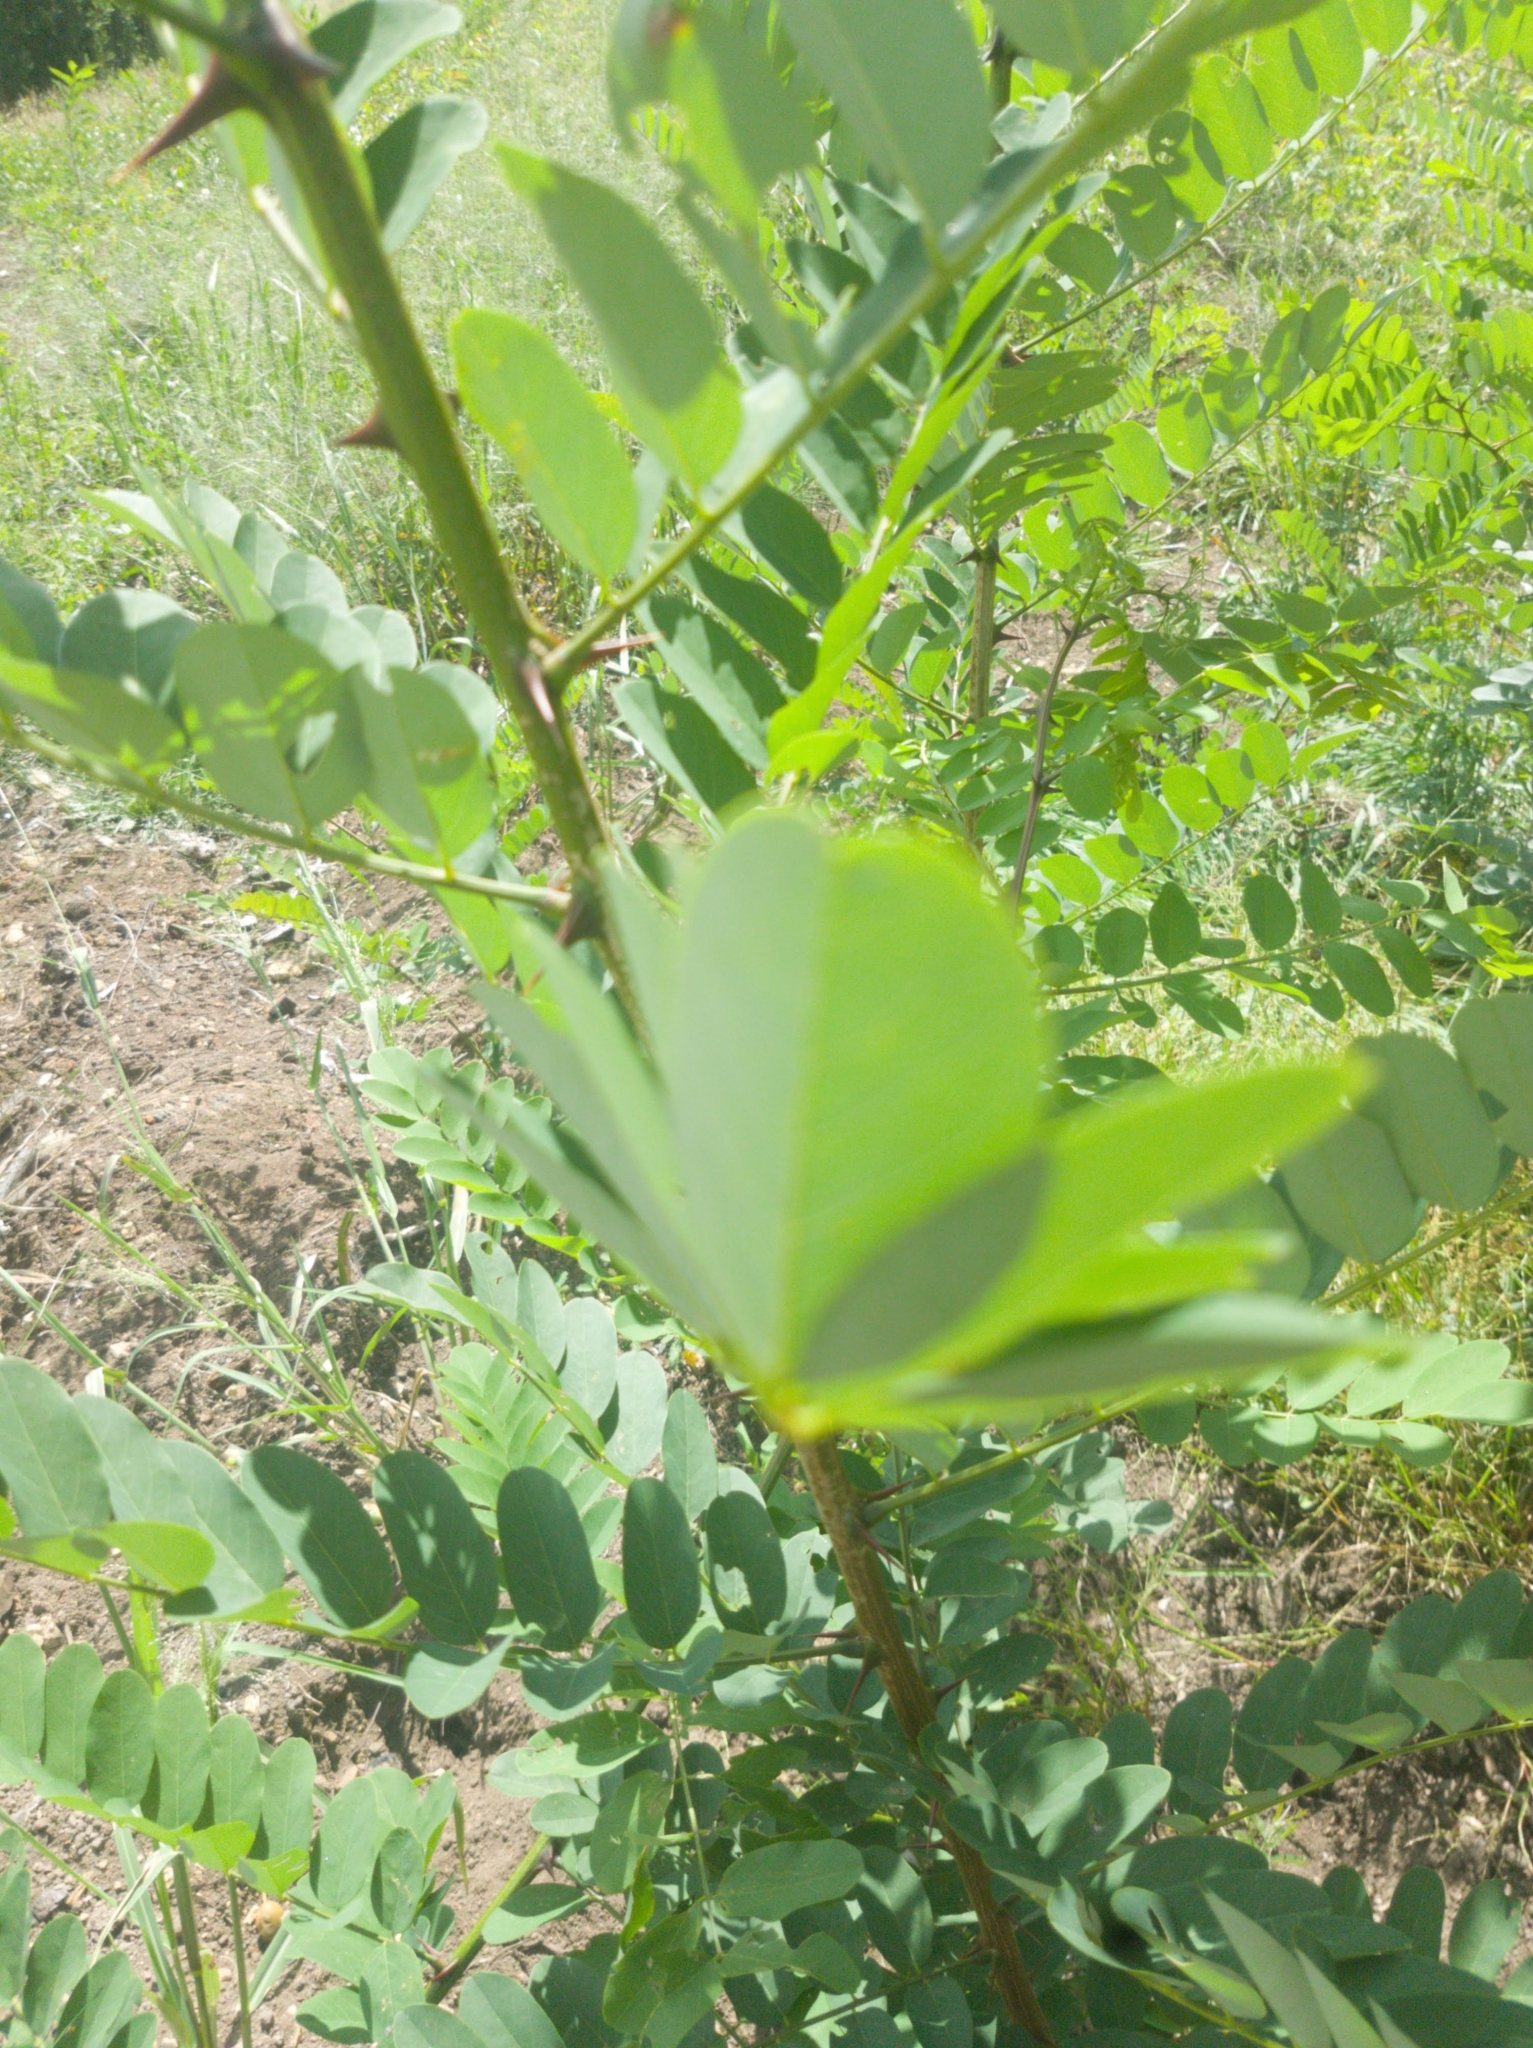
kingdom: Plantae
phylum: Tracheophyta
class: Magnoliopsida
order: Fabales
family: Fabaceae
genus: Robinia
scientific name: Robinia pseudoacacia
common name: Black locust
